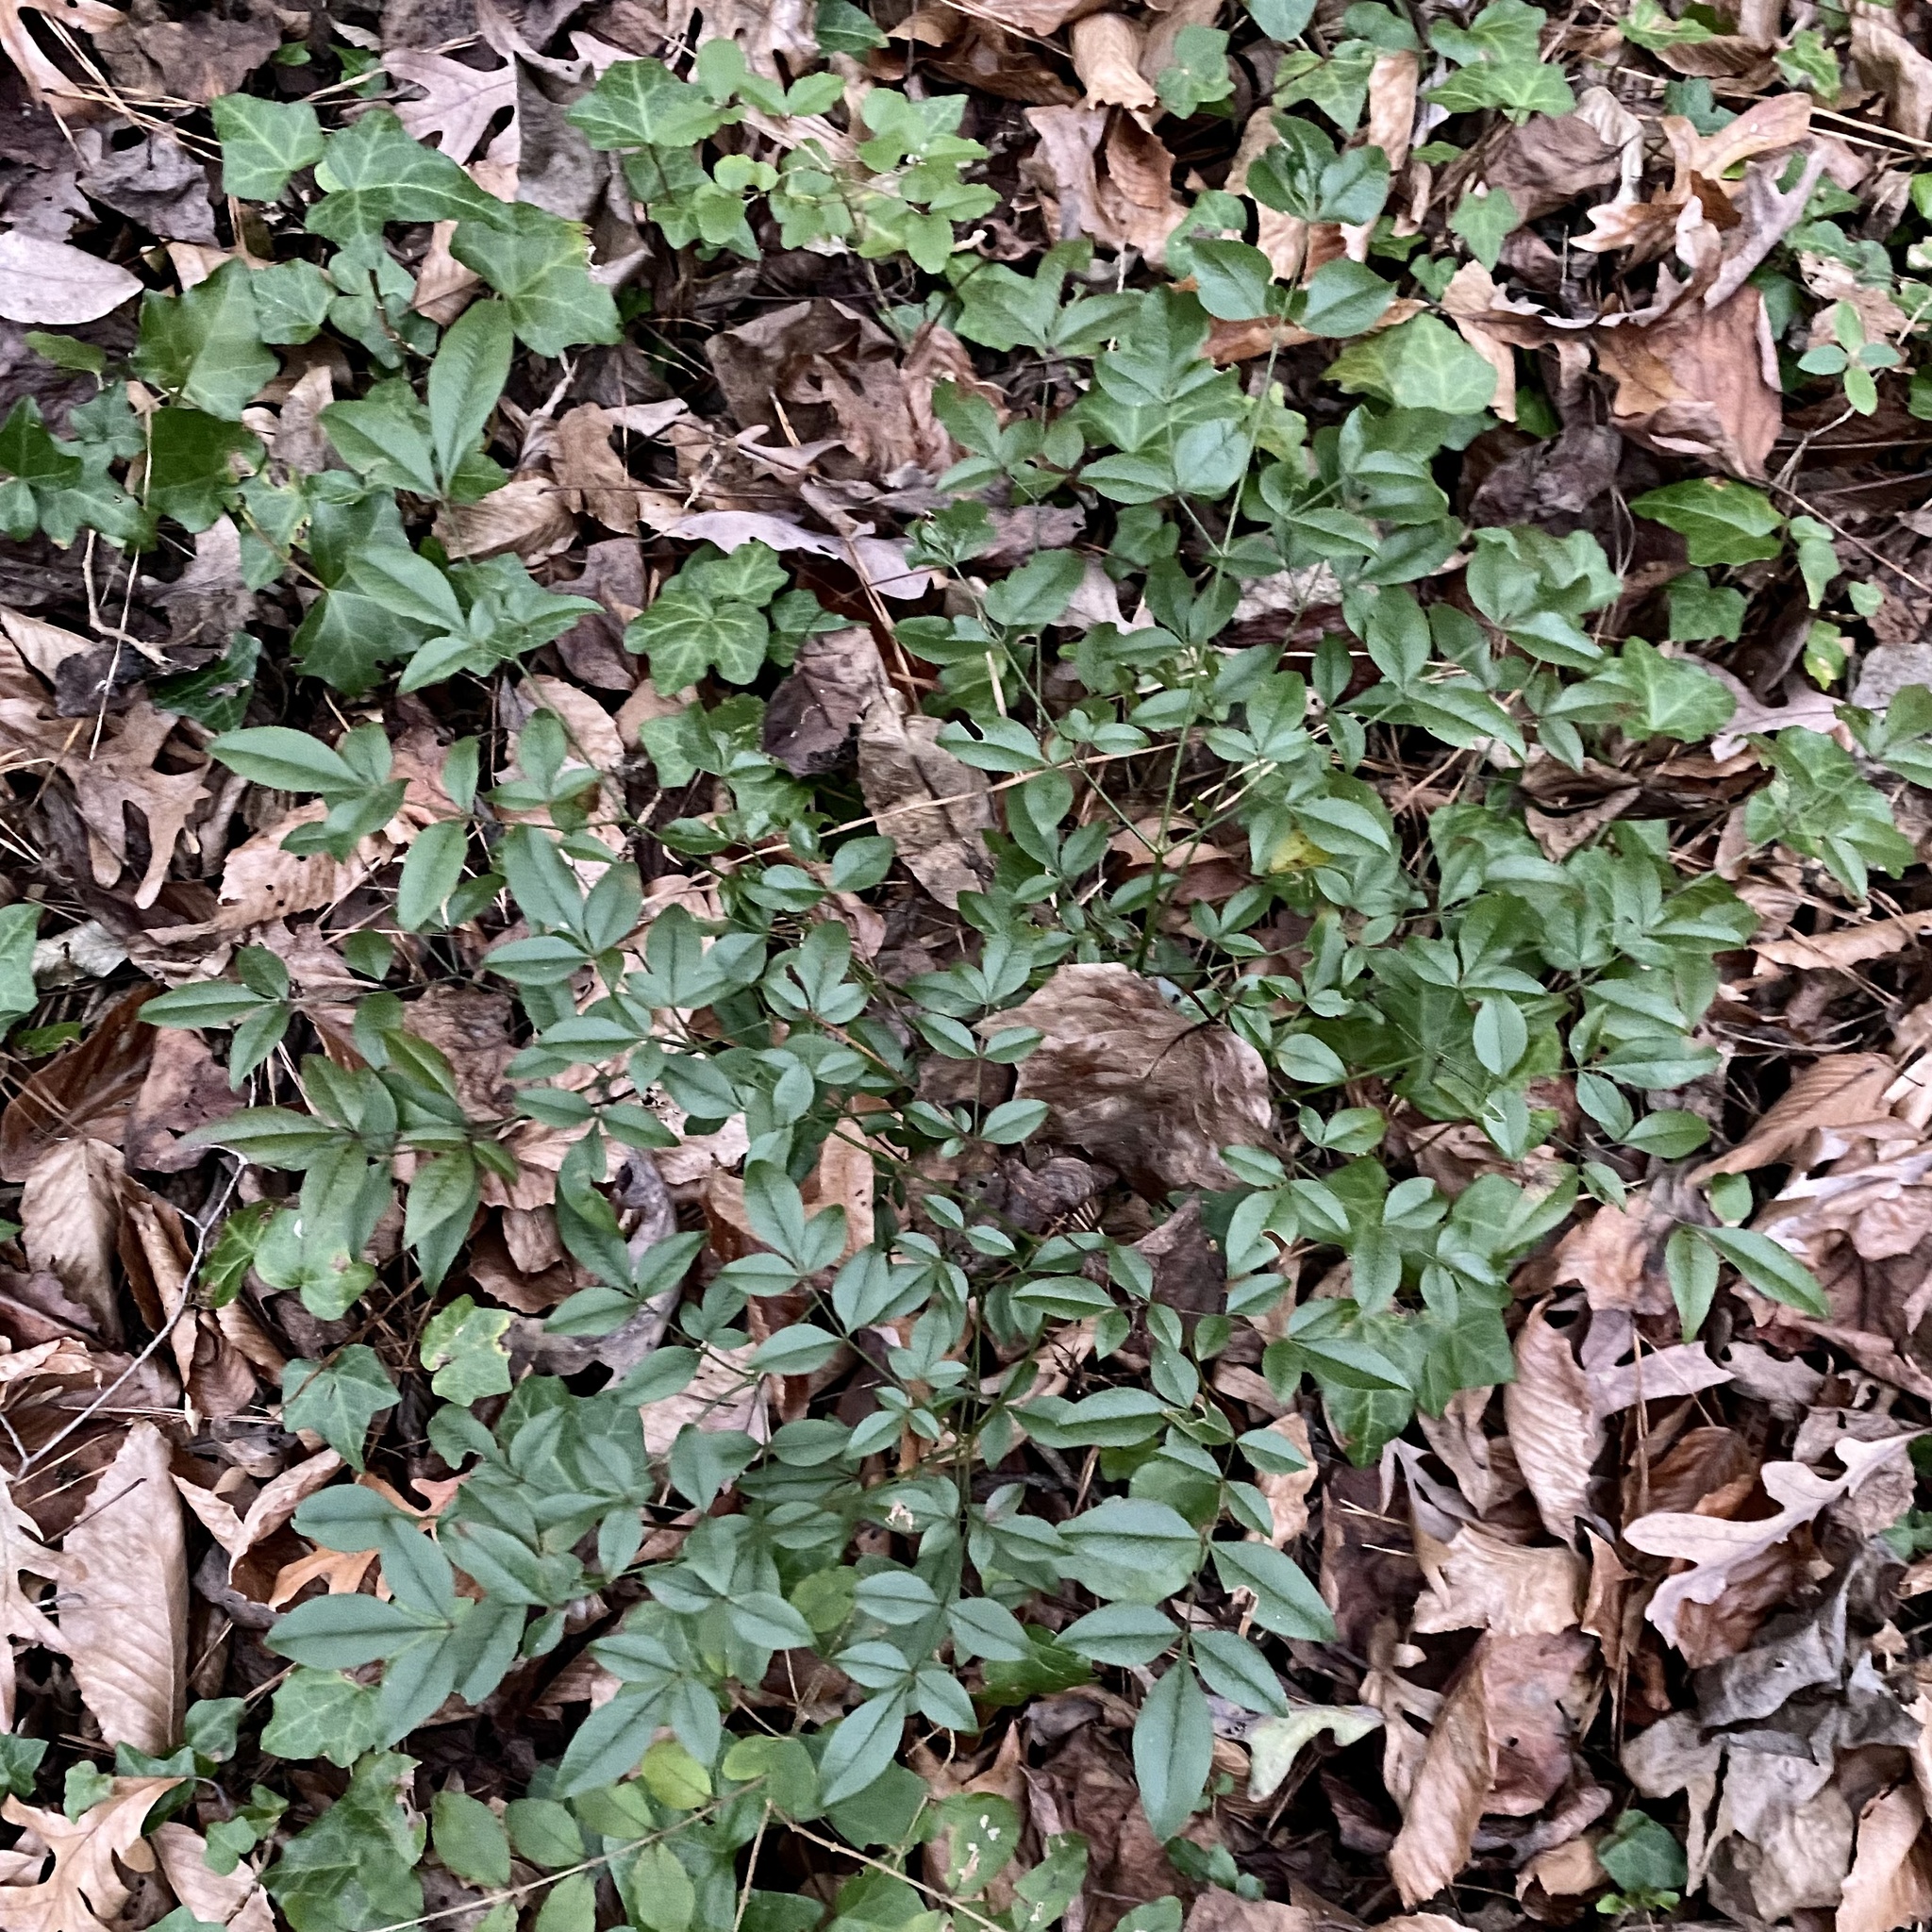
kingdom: Plantae
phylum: Tracheophyta
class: Magnoliopsida
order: Ranunculales
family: Berberidaceae
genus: Nandina
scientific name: Nandina domestica
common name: Sacred bamboo
